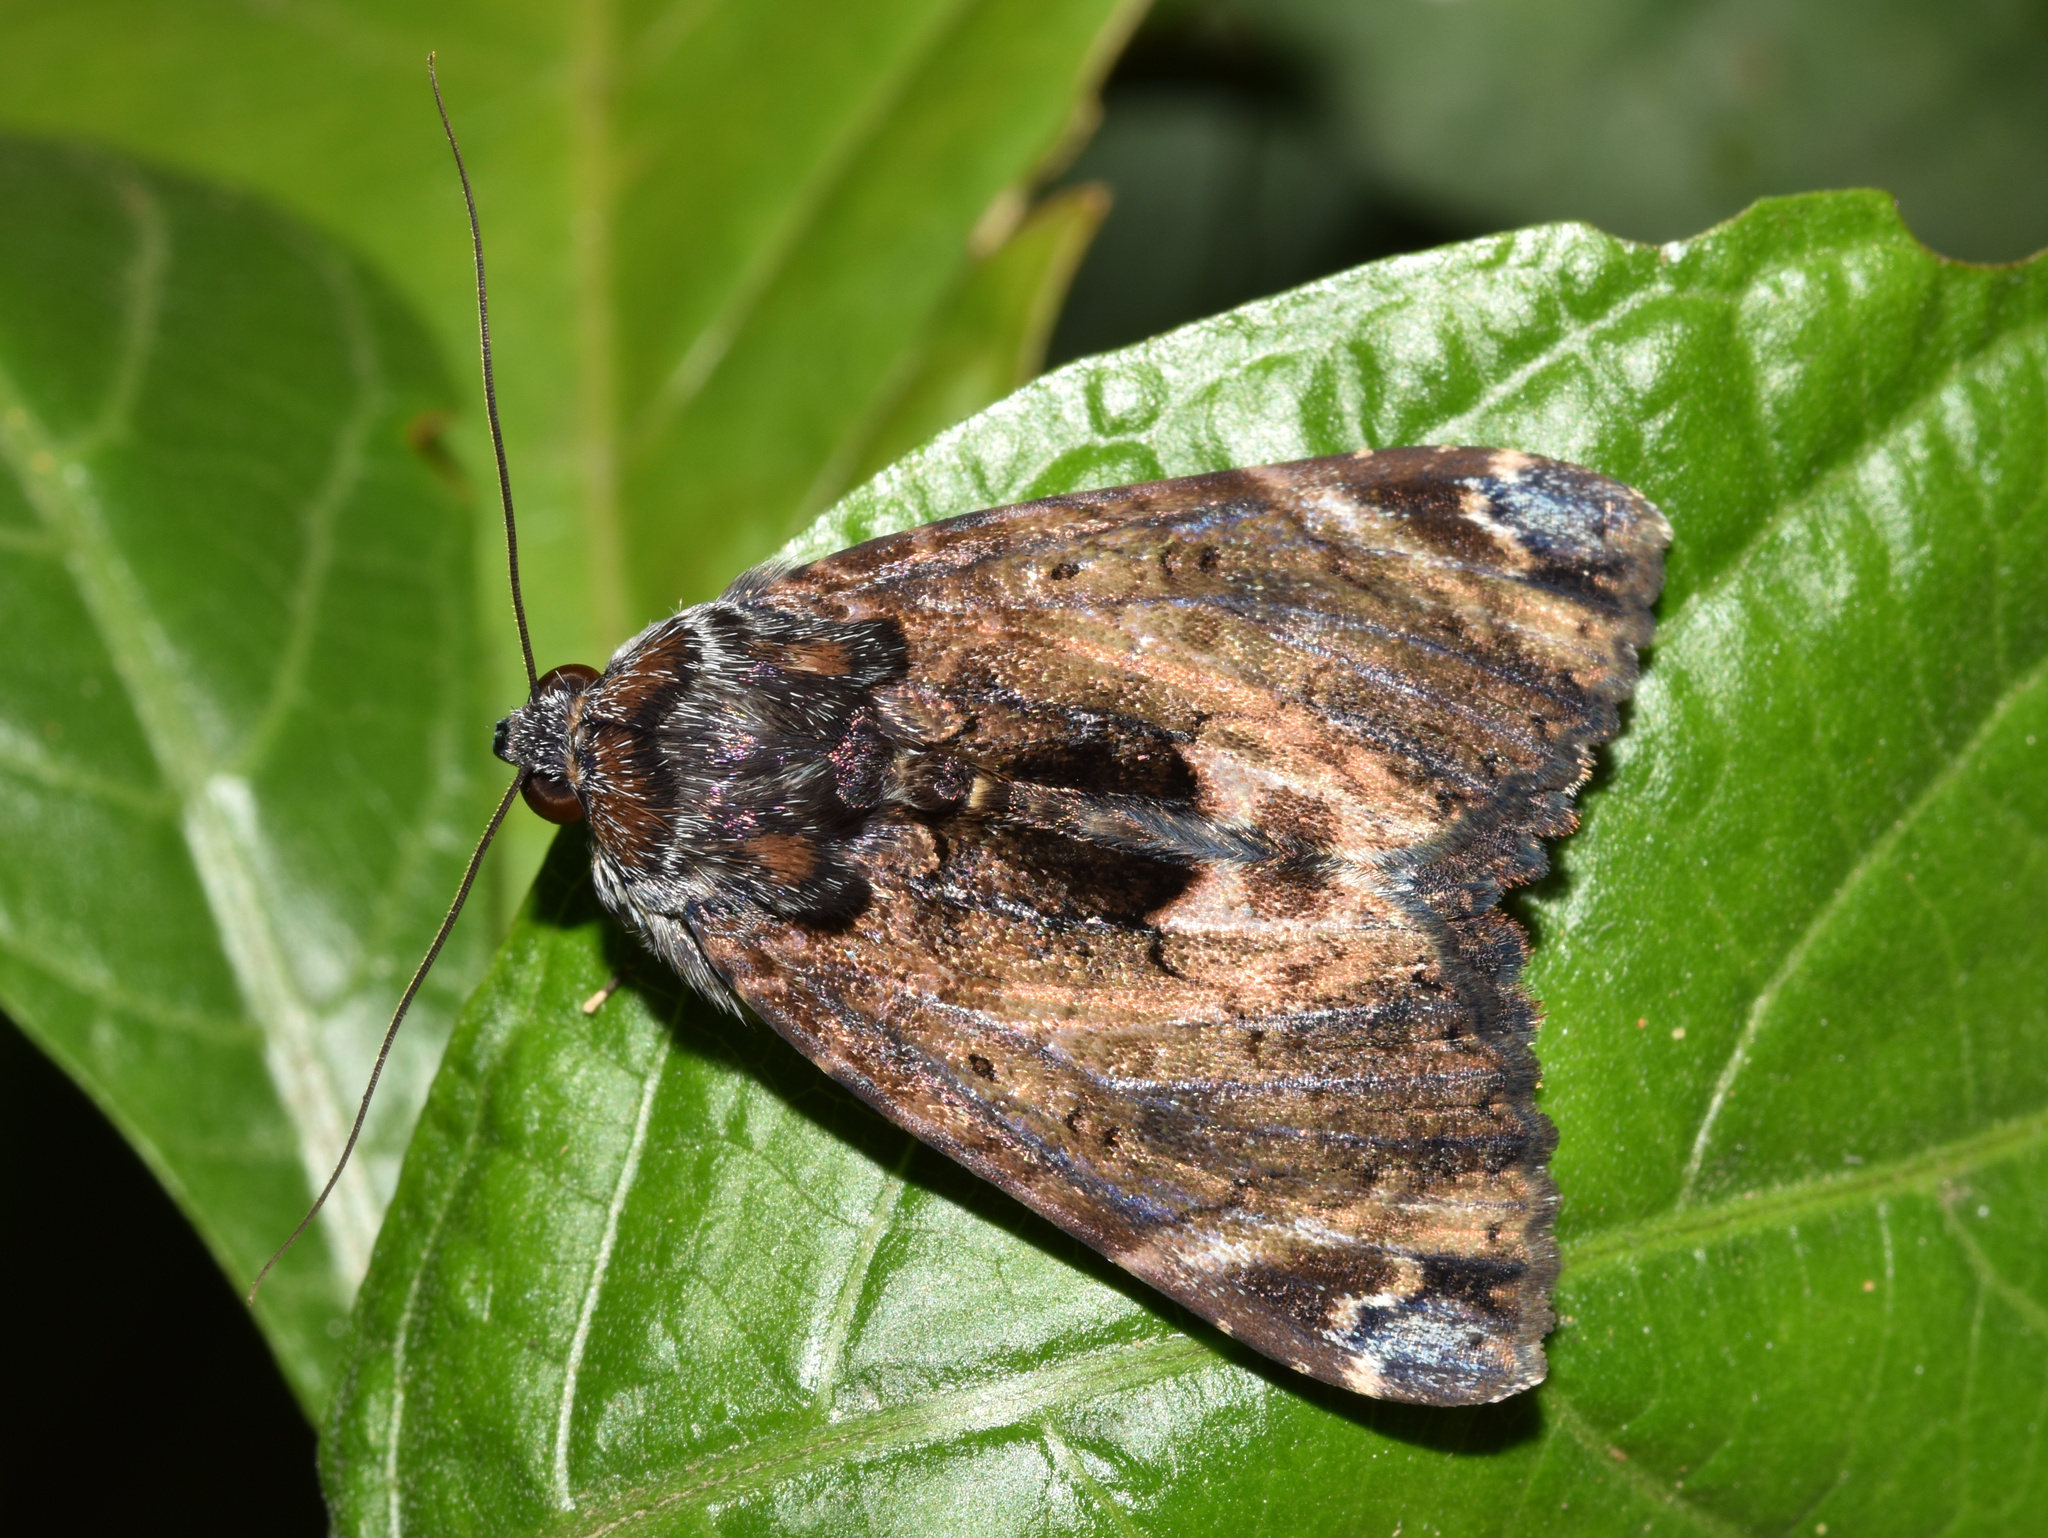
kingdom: Animalia
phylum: Arthropoda
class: Insecta
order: Lepidoptera
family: Erebidae
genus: Catephia
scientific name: Catephia natalensis
